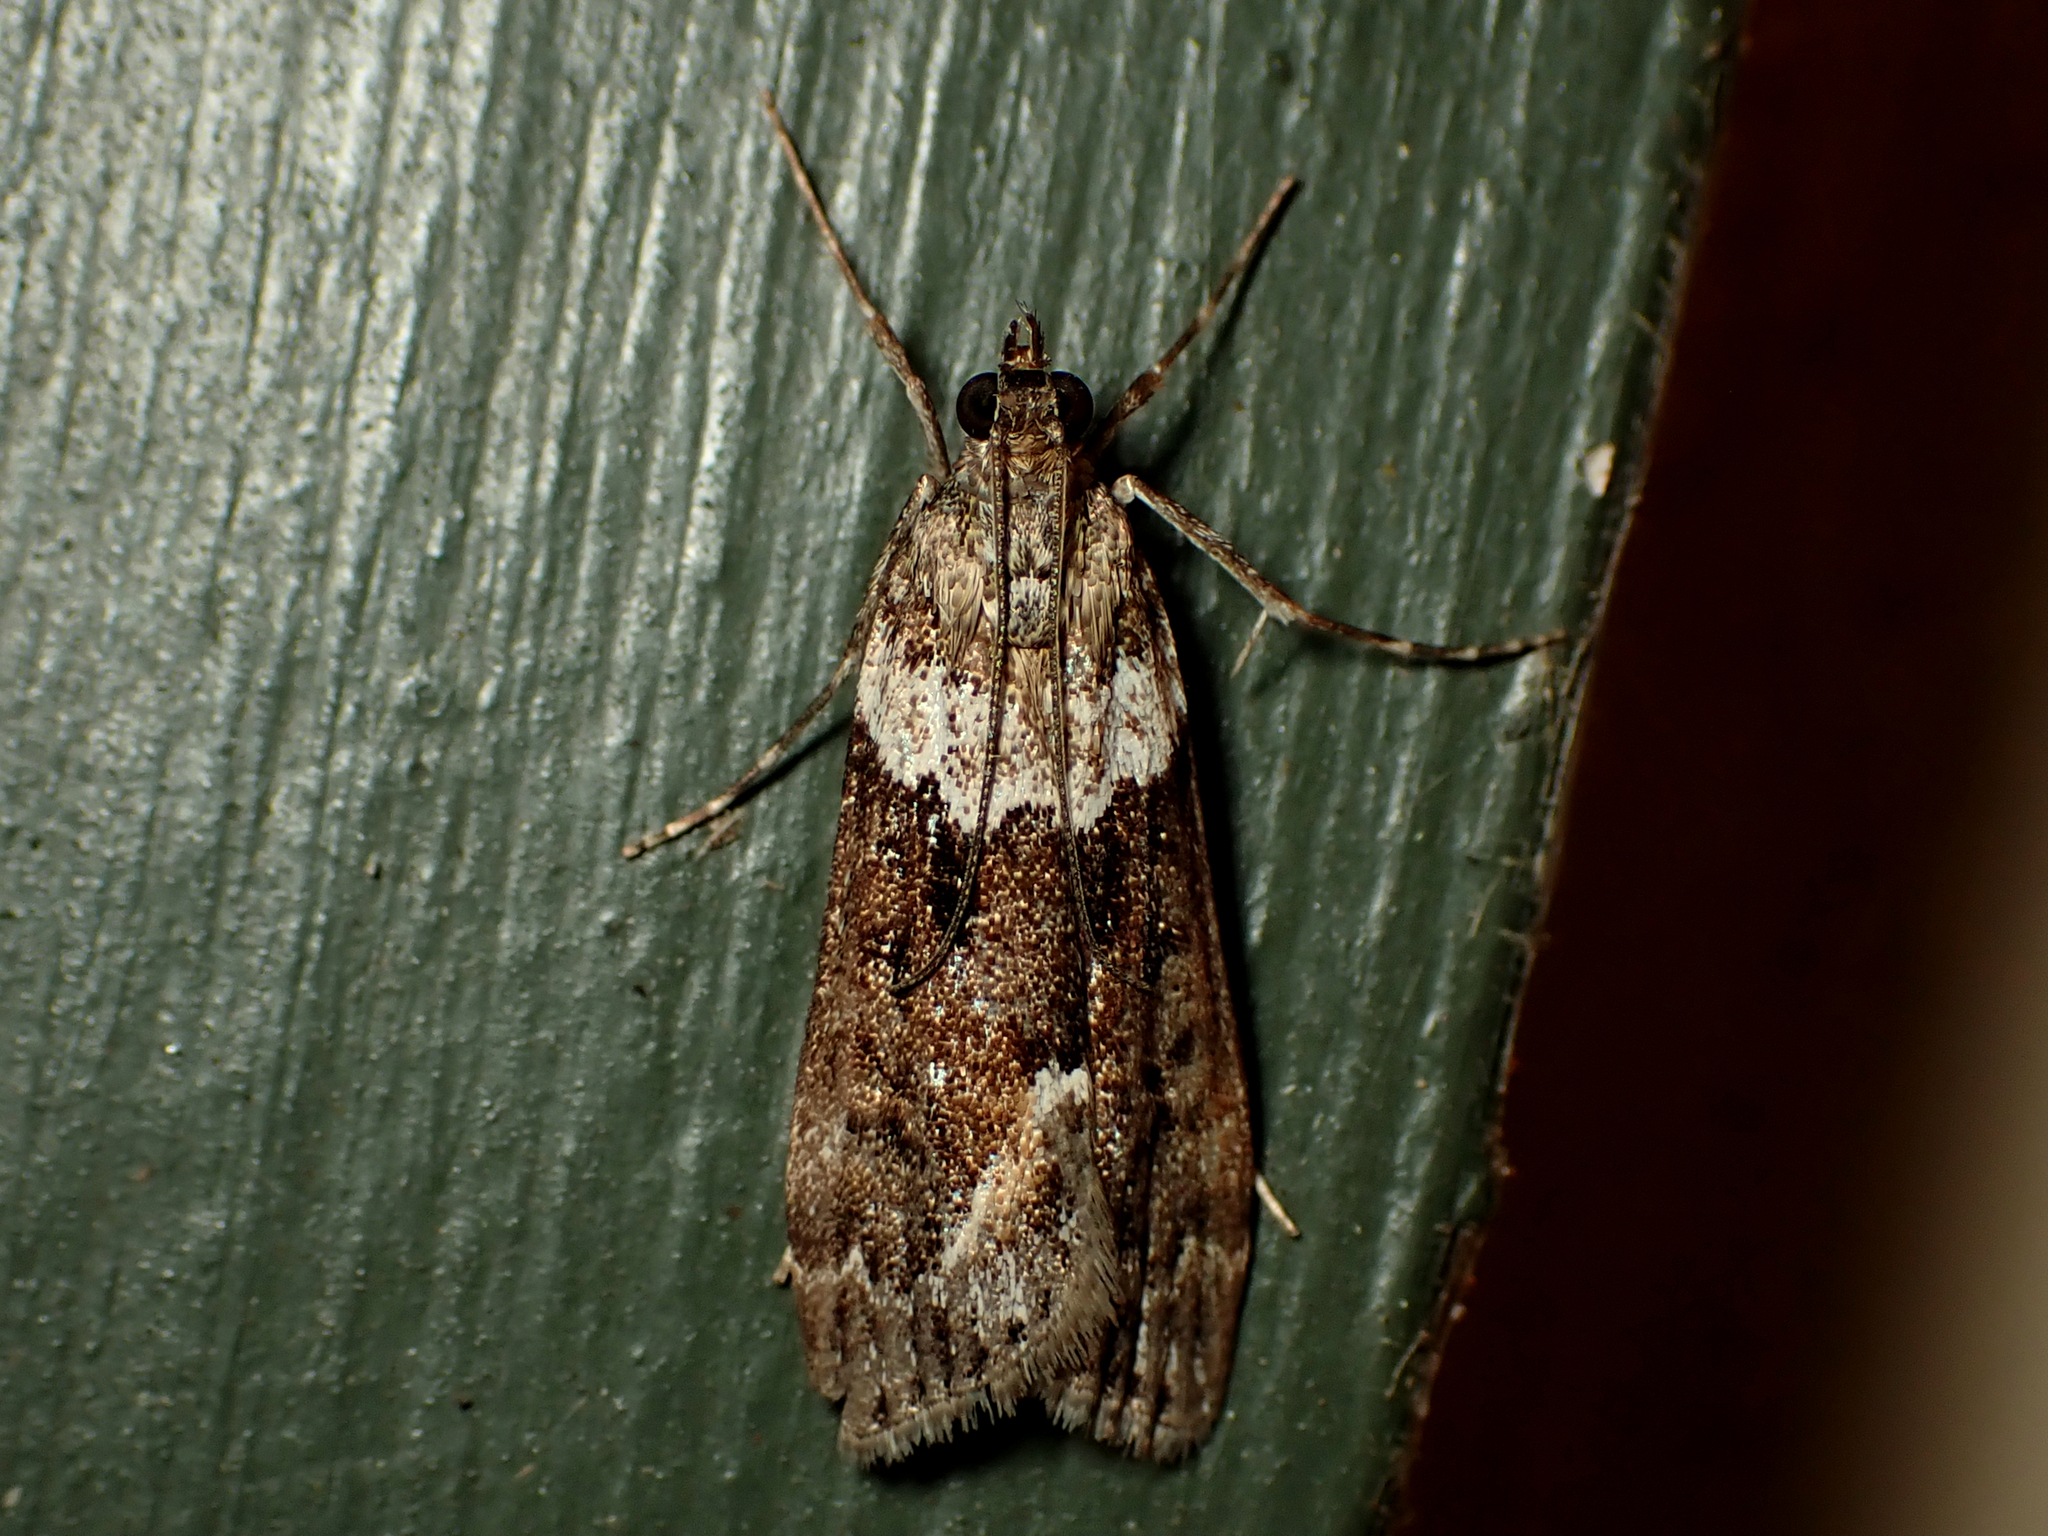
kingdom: Animalia
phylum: Arthropoda
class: Insecta
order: Lepidoptera
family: Crambidae
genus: Eudonia
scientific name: Eudonia submarginalis
